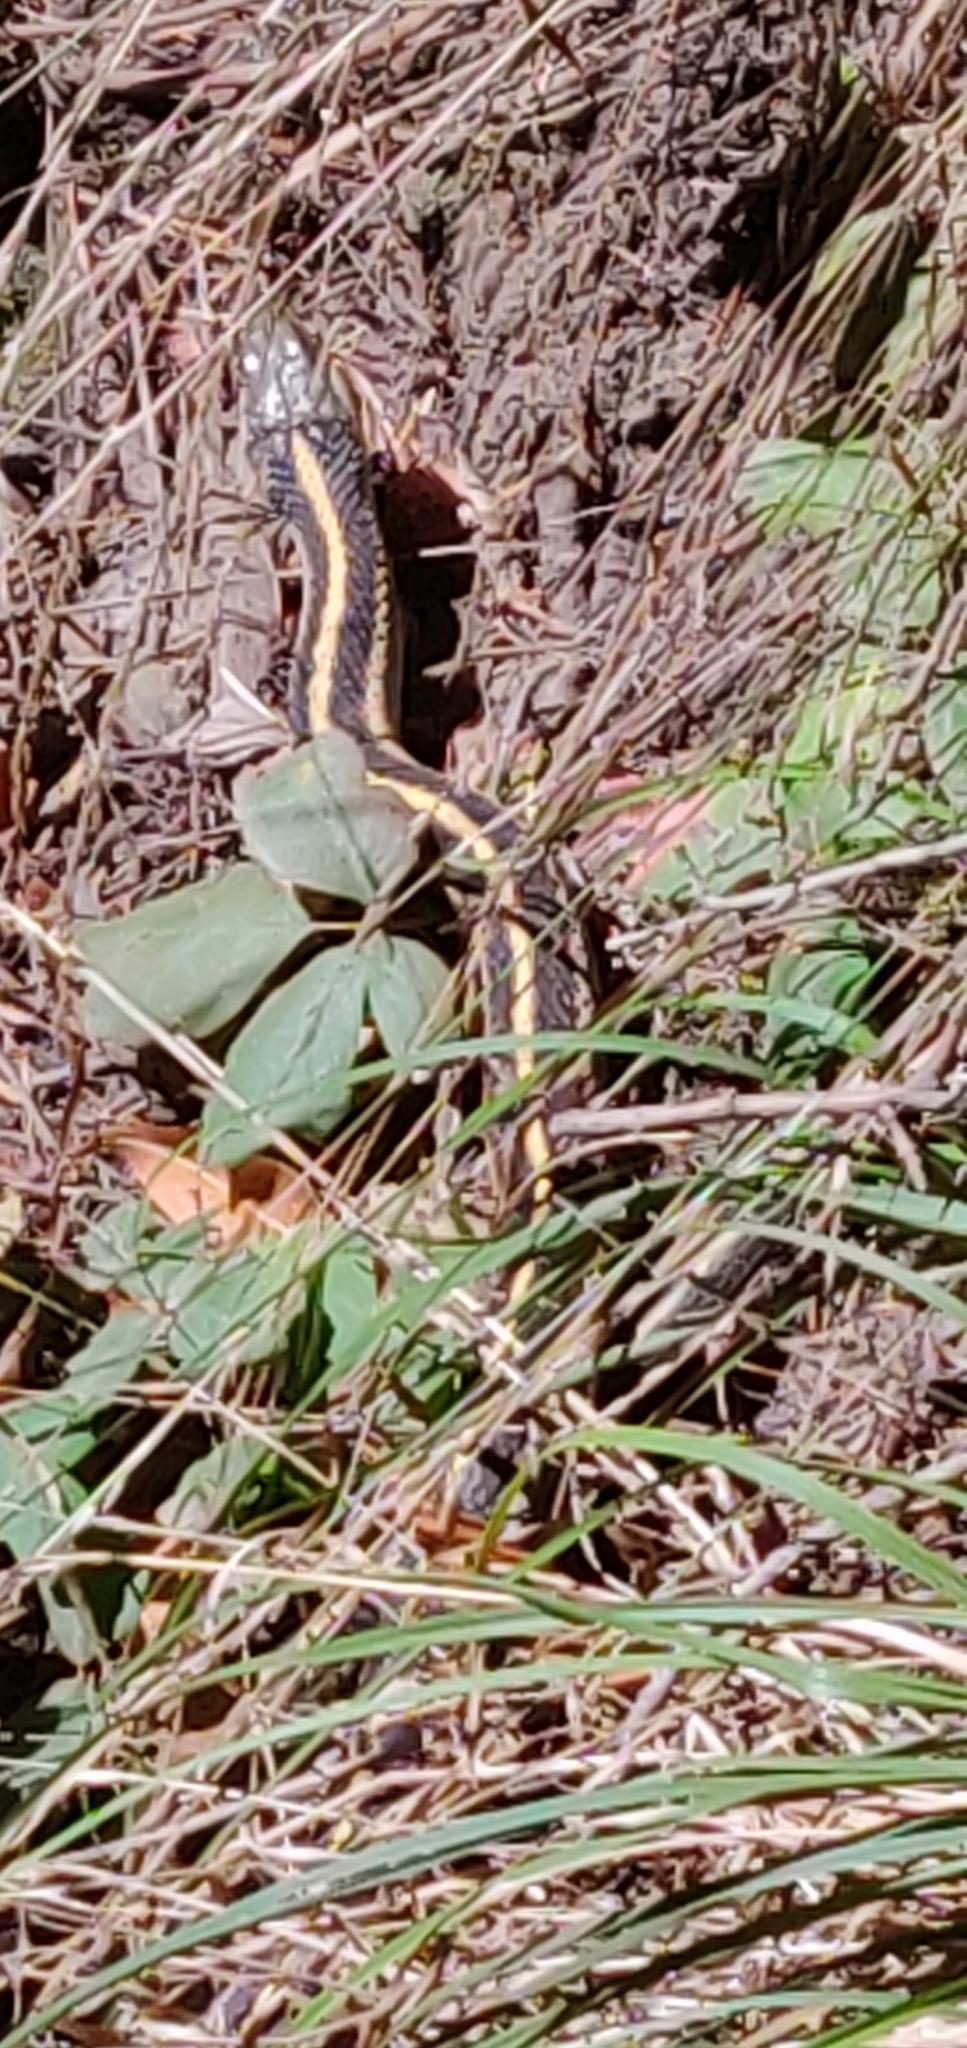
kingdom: Animalia
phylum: Chordata
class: Squamata
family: Colubridae
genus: Thamnophis
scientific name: Thamnophis
